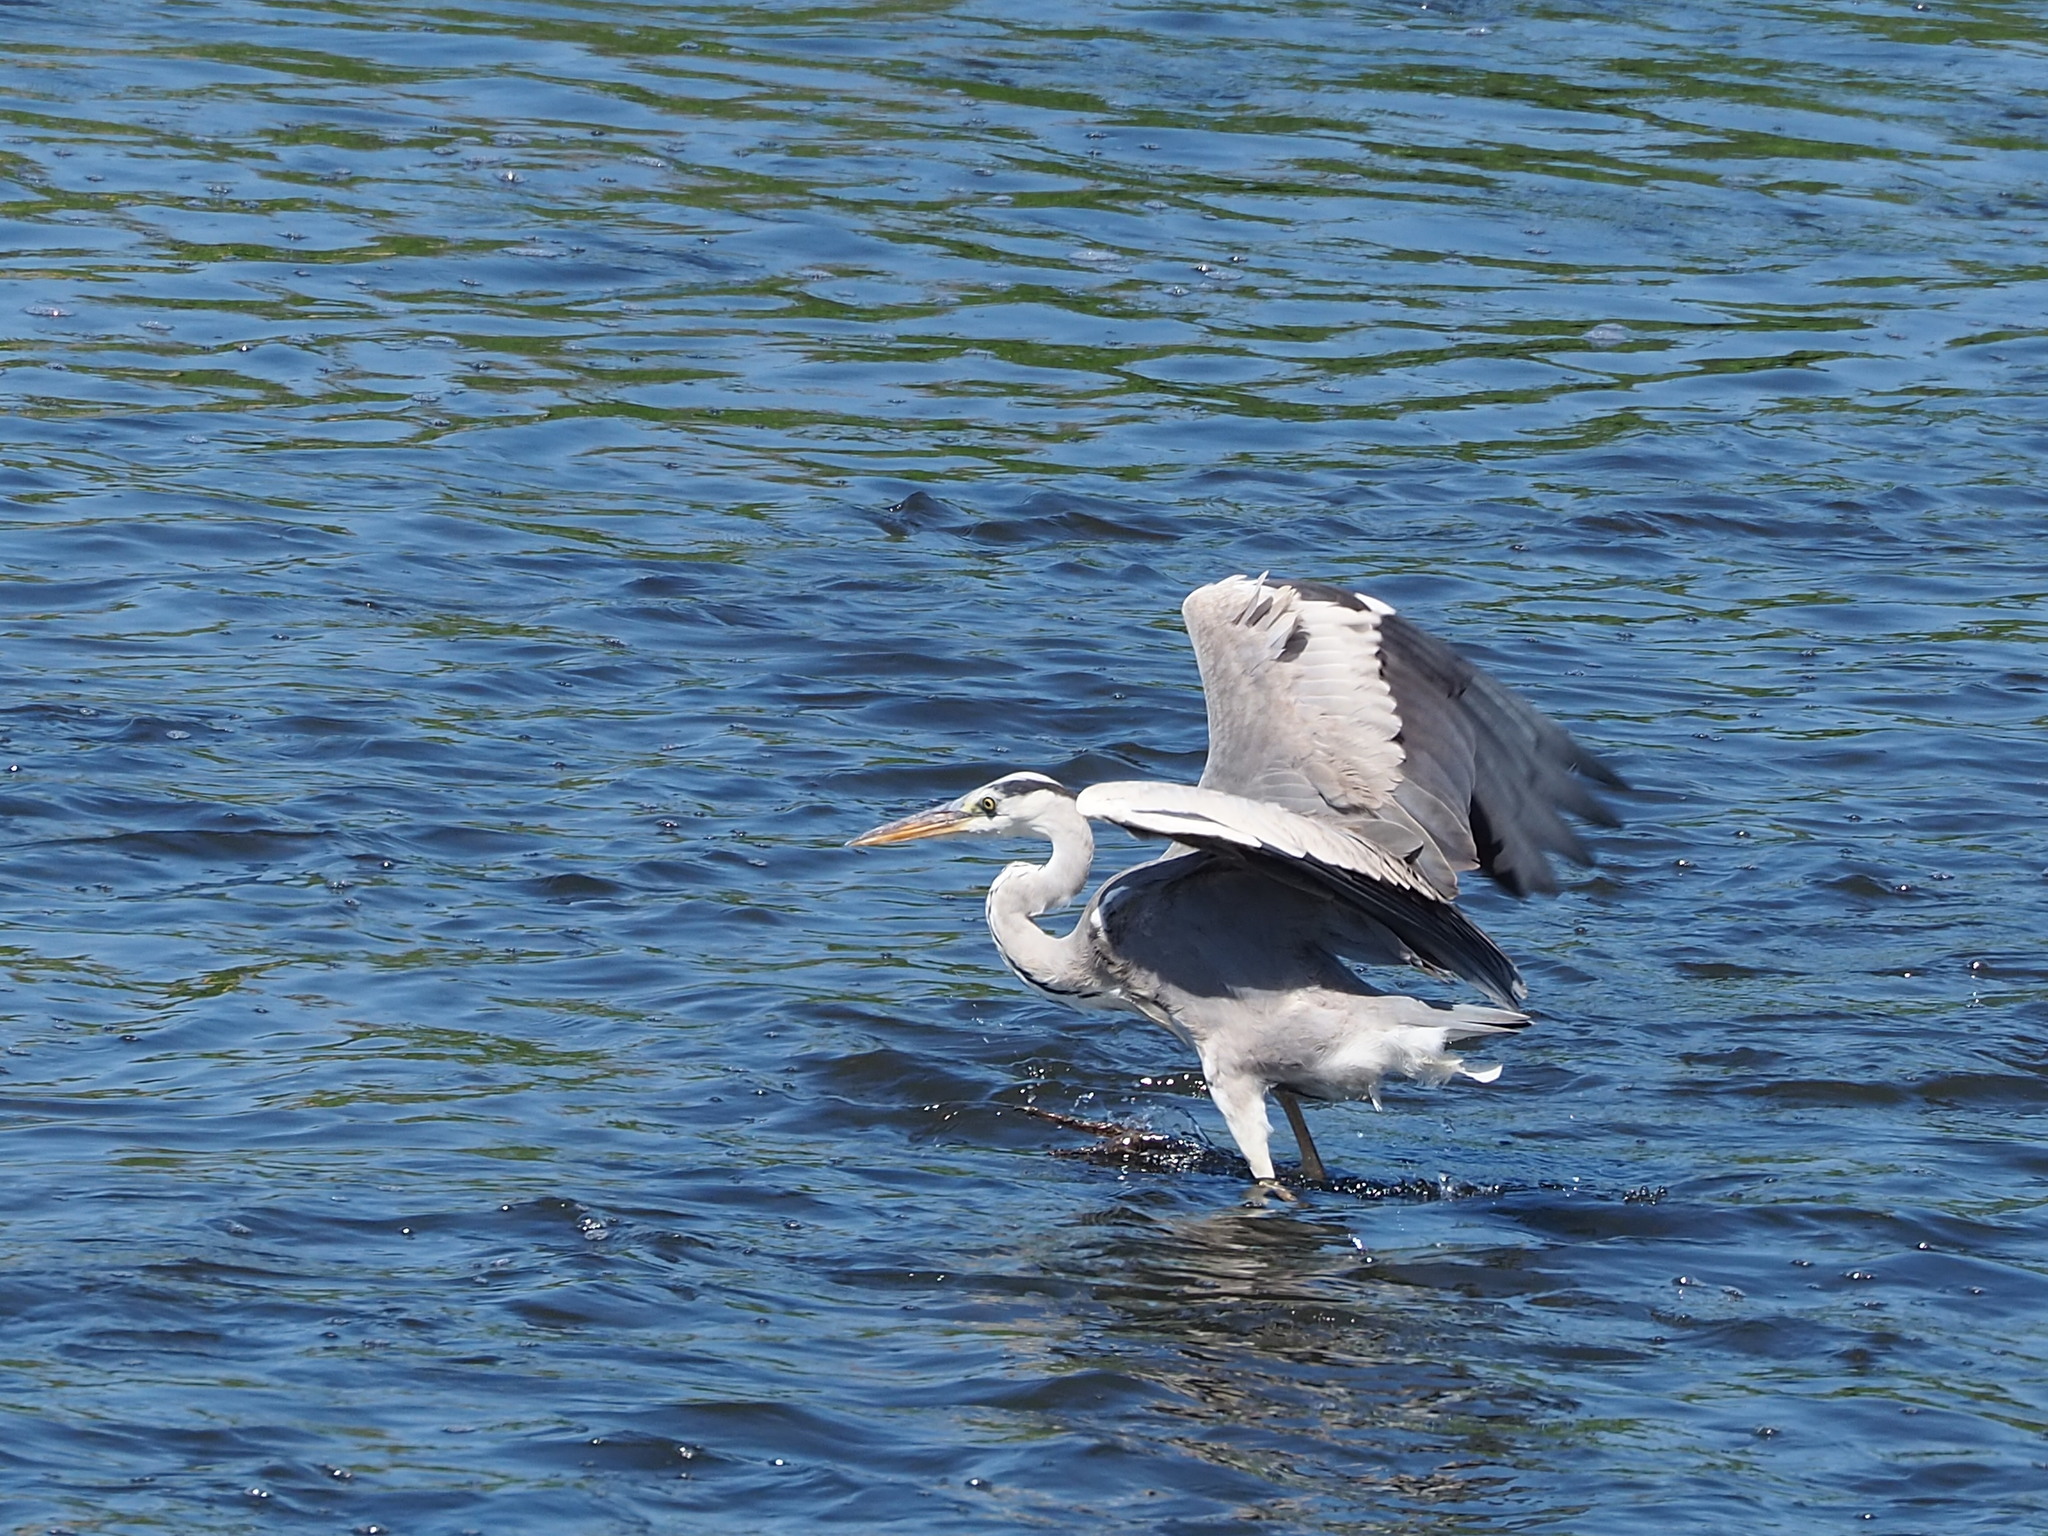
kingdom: Animalia
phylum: Chordata
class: Aves
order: Pelecaniformes
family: Ardeidae
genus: Ardea
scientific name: Ardea cinerea
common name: Grey heron
